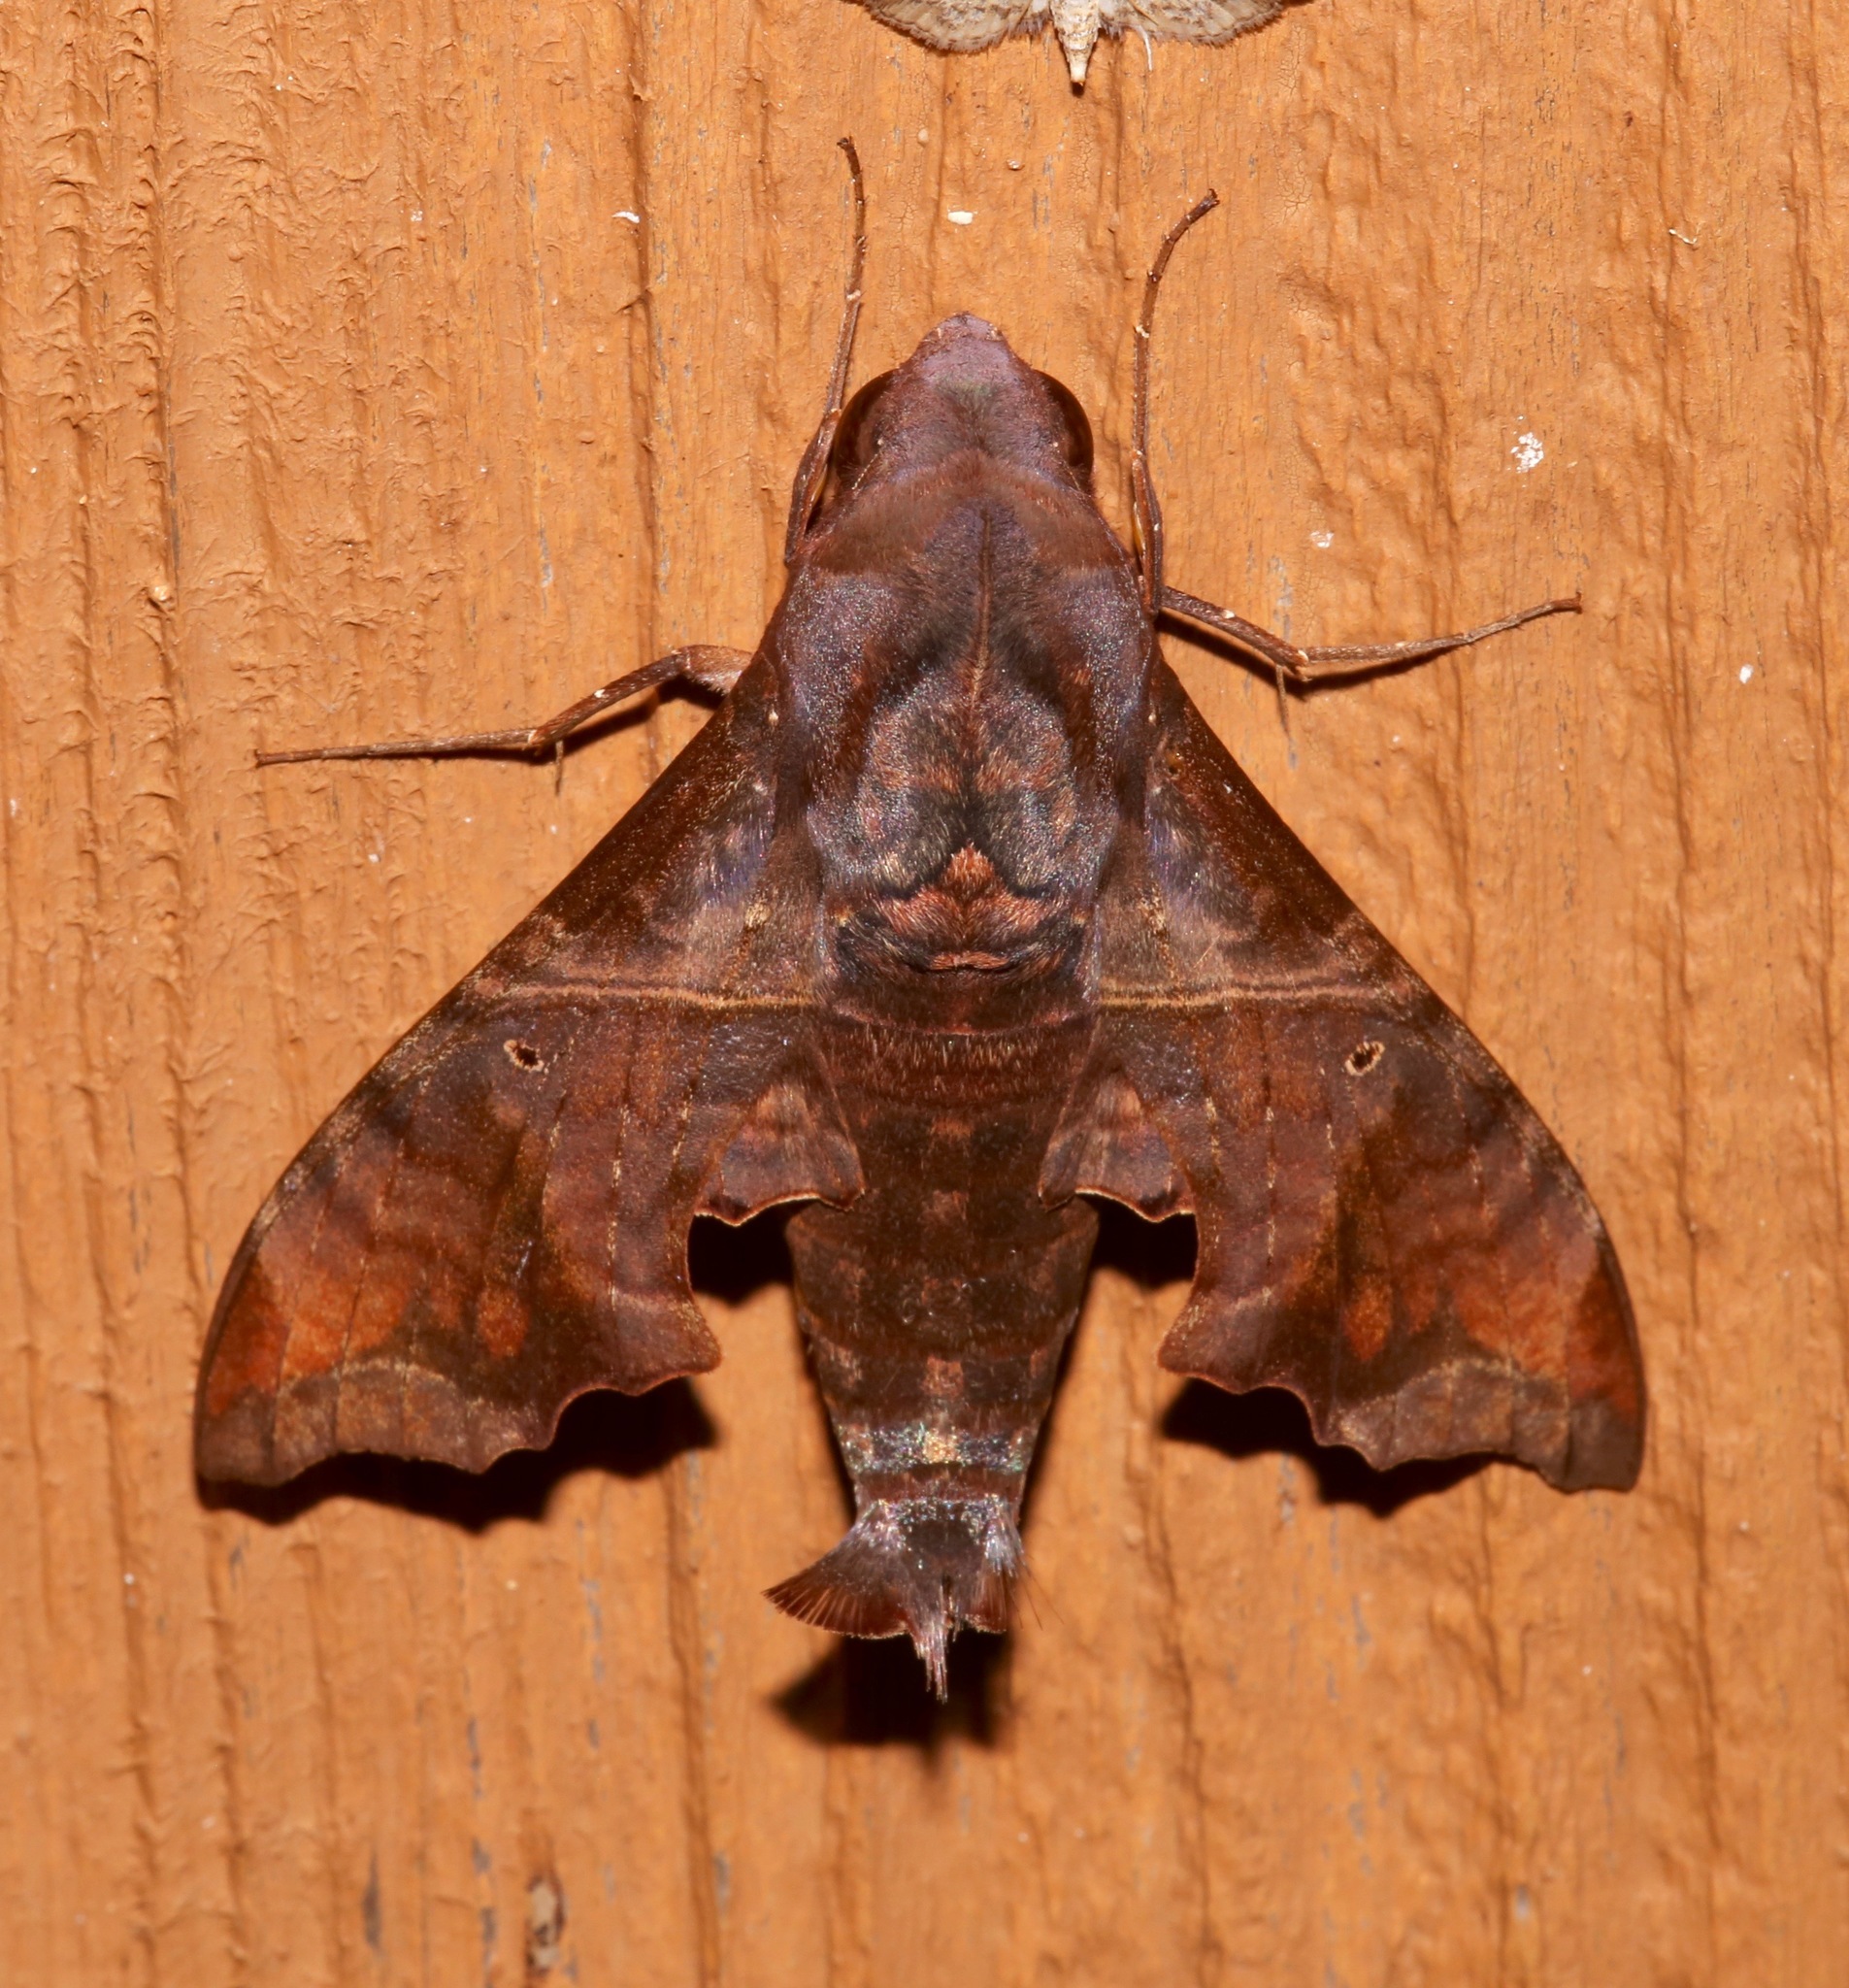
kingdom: Animalia
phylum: Arthropoda
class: Insecta
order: Lepidoptera
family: Sphingidae
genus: Enyo
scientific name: Enyo lugubris
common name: Mournful sphinx
